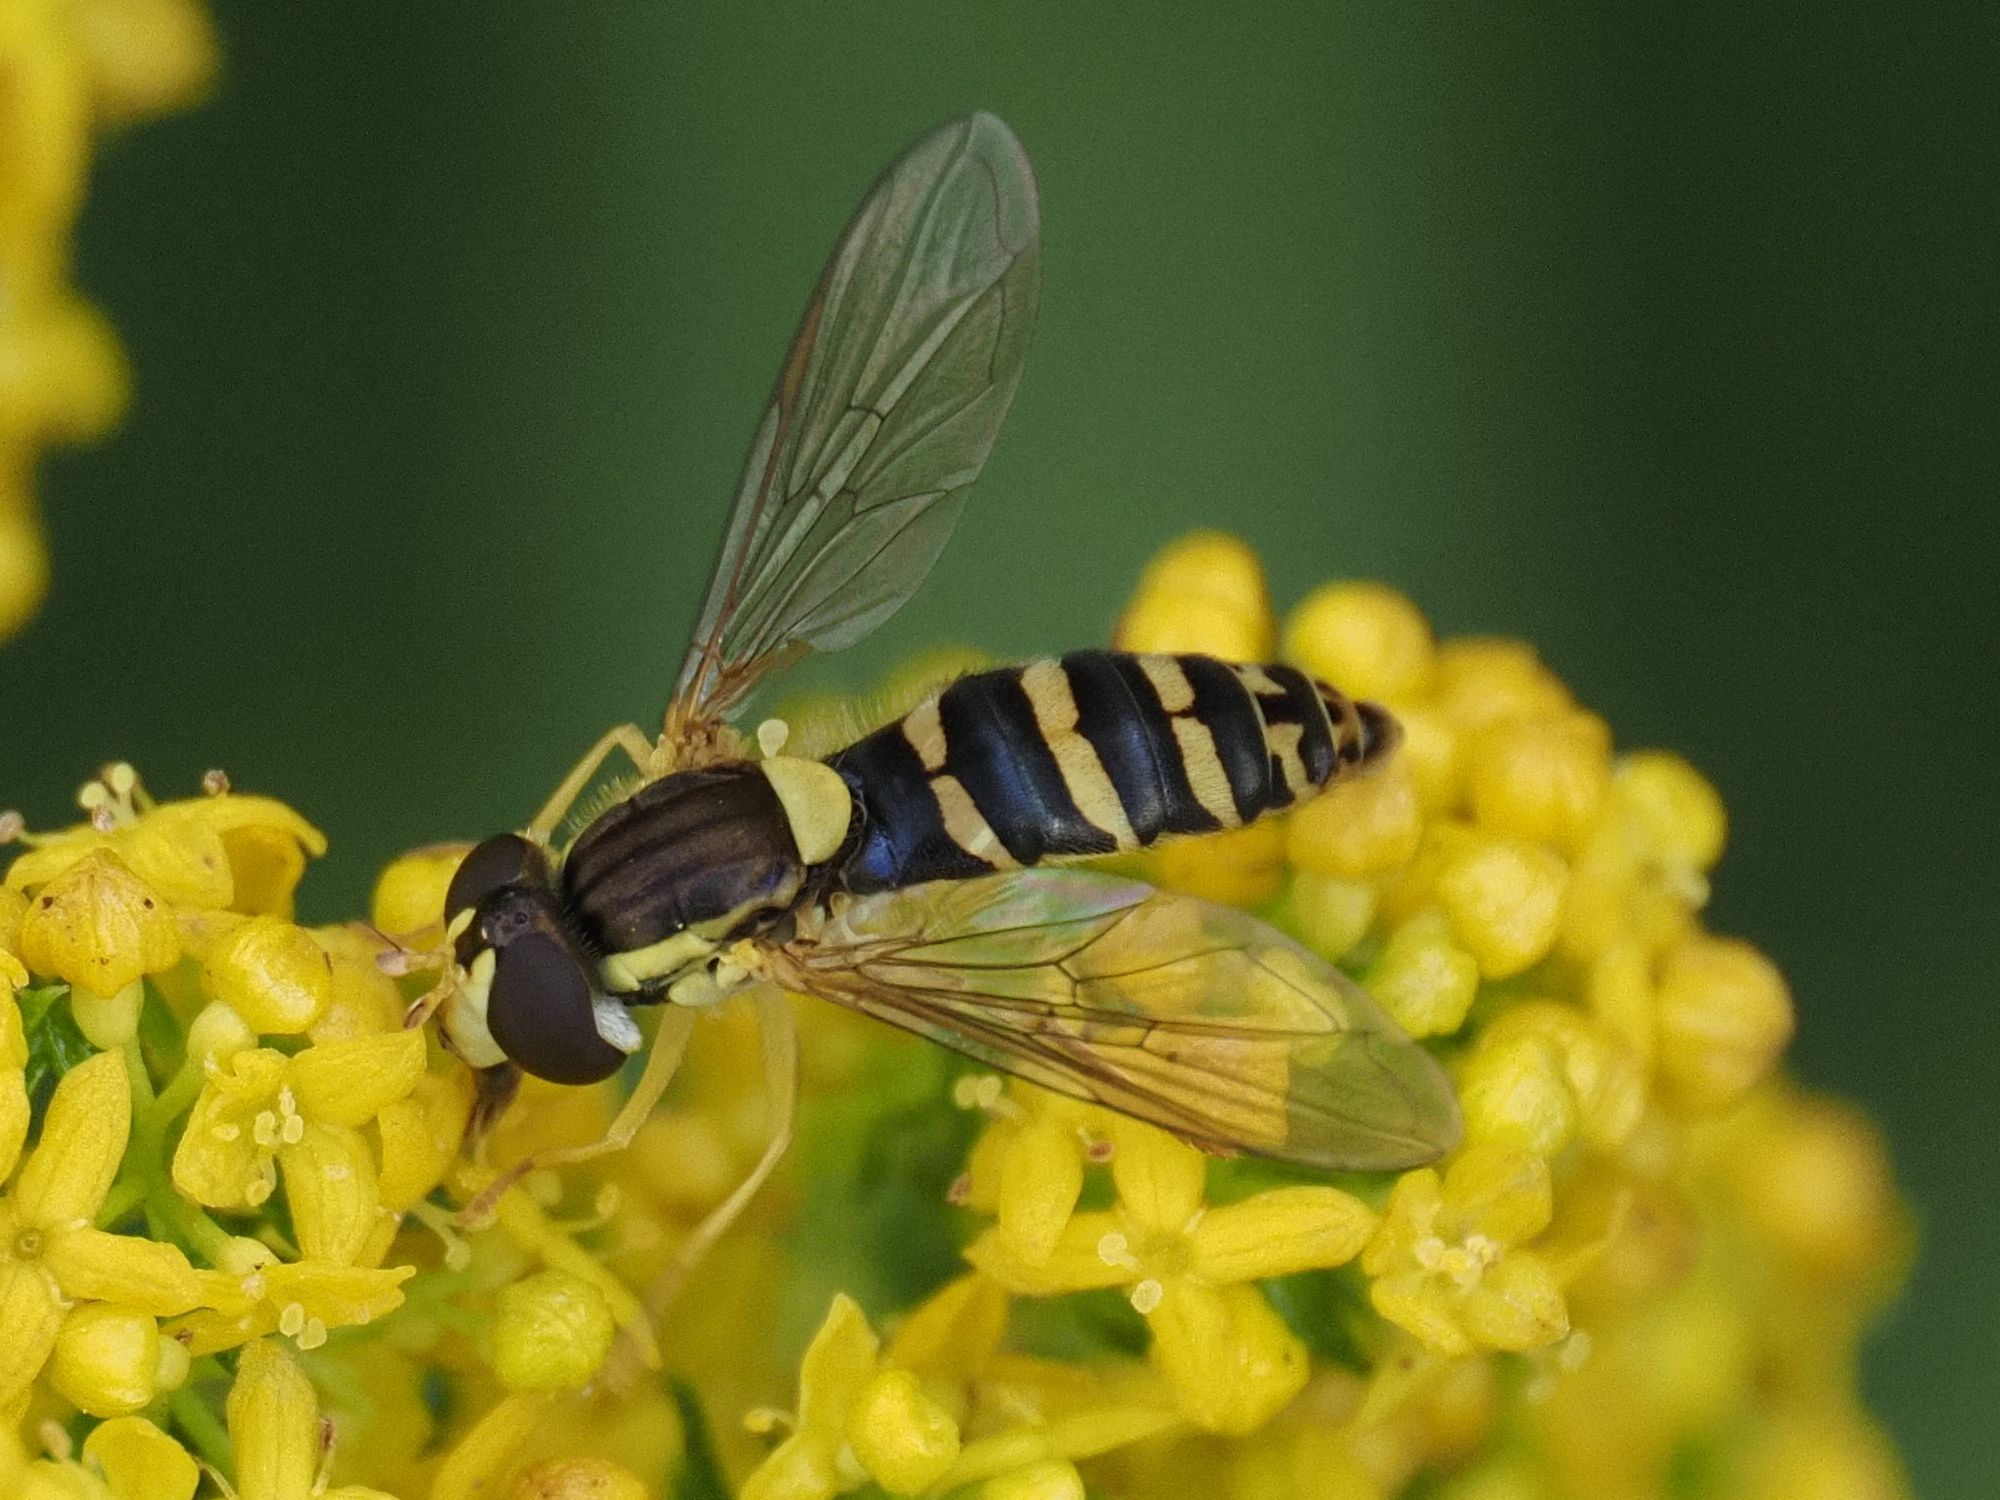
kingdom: Animalia
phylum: Arthropoda
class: Insecta
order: Diptera
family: Syrphidae
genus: Sphaerophoria
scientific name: Sphaerophoria
